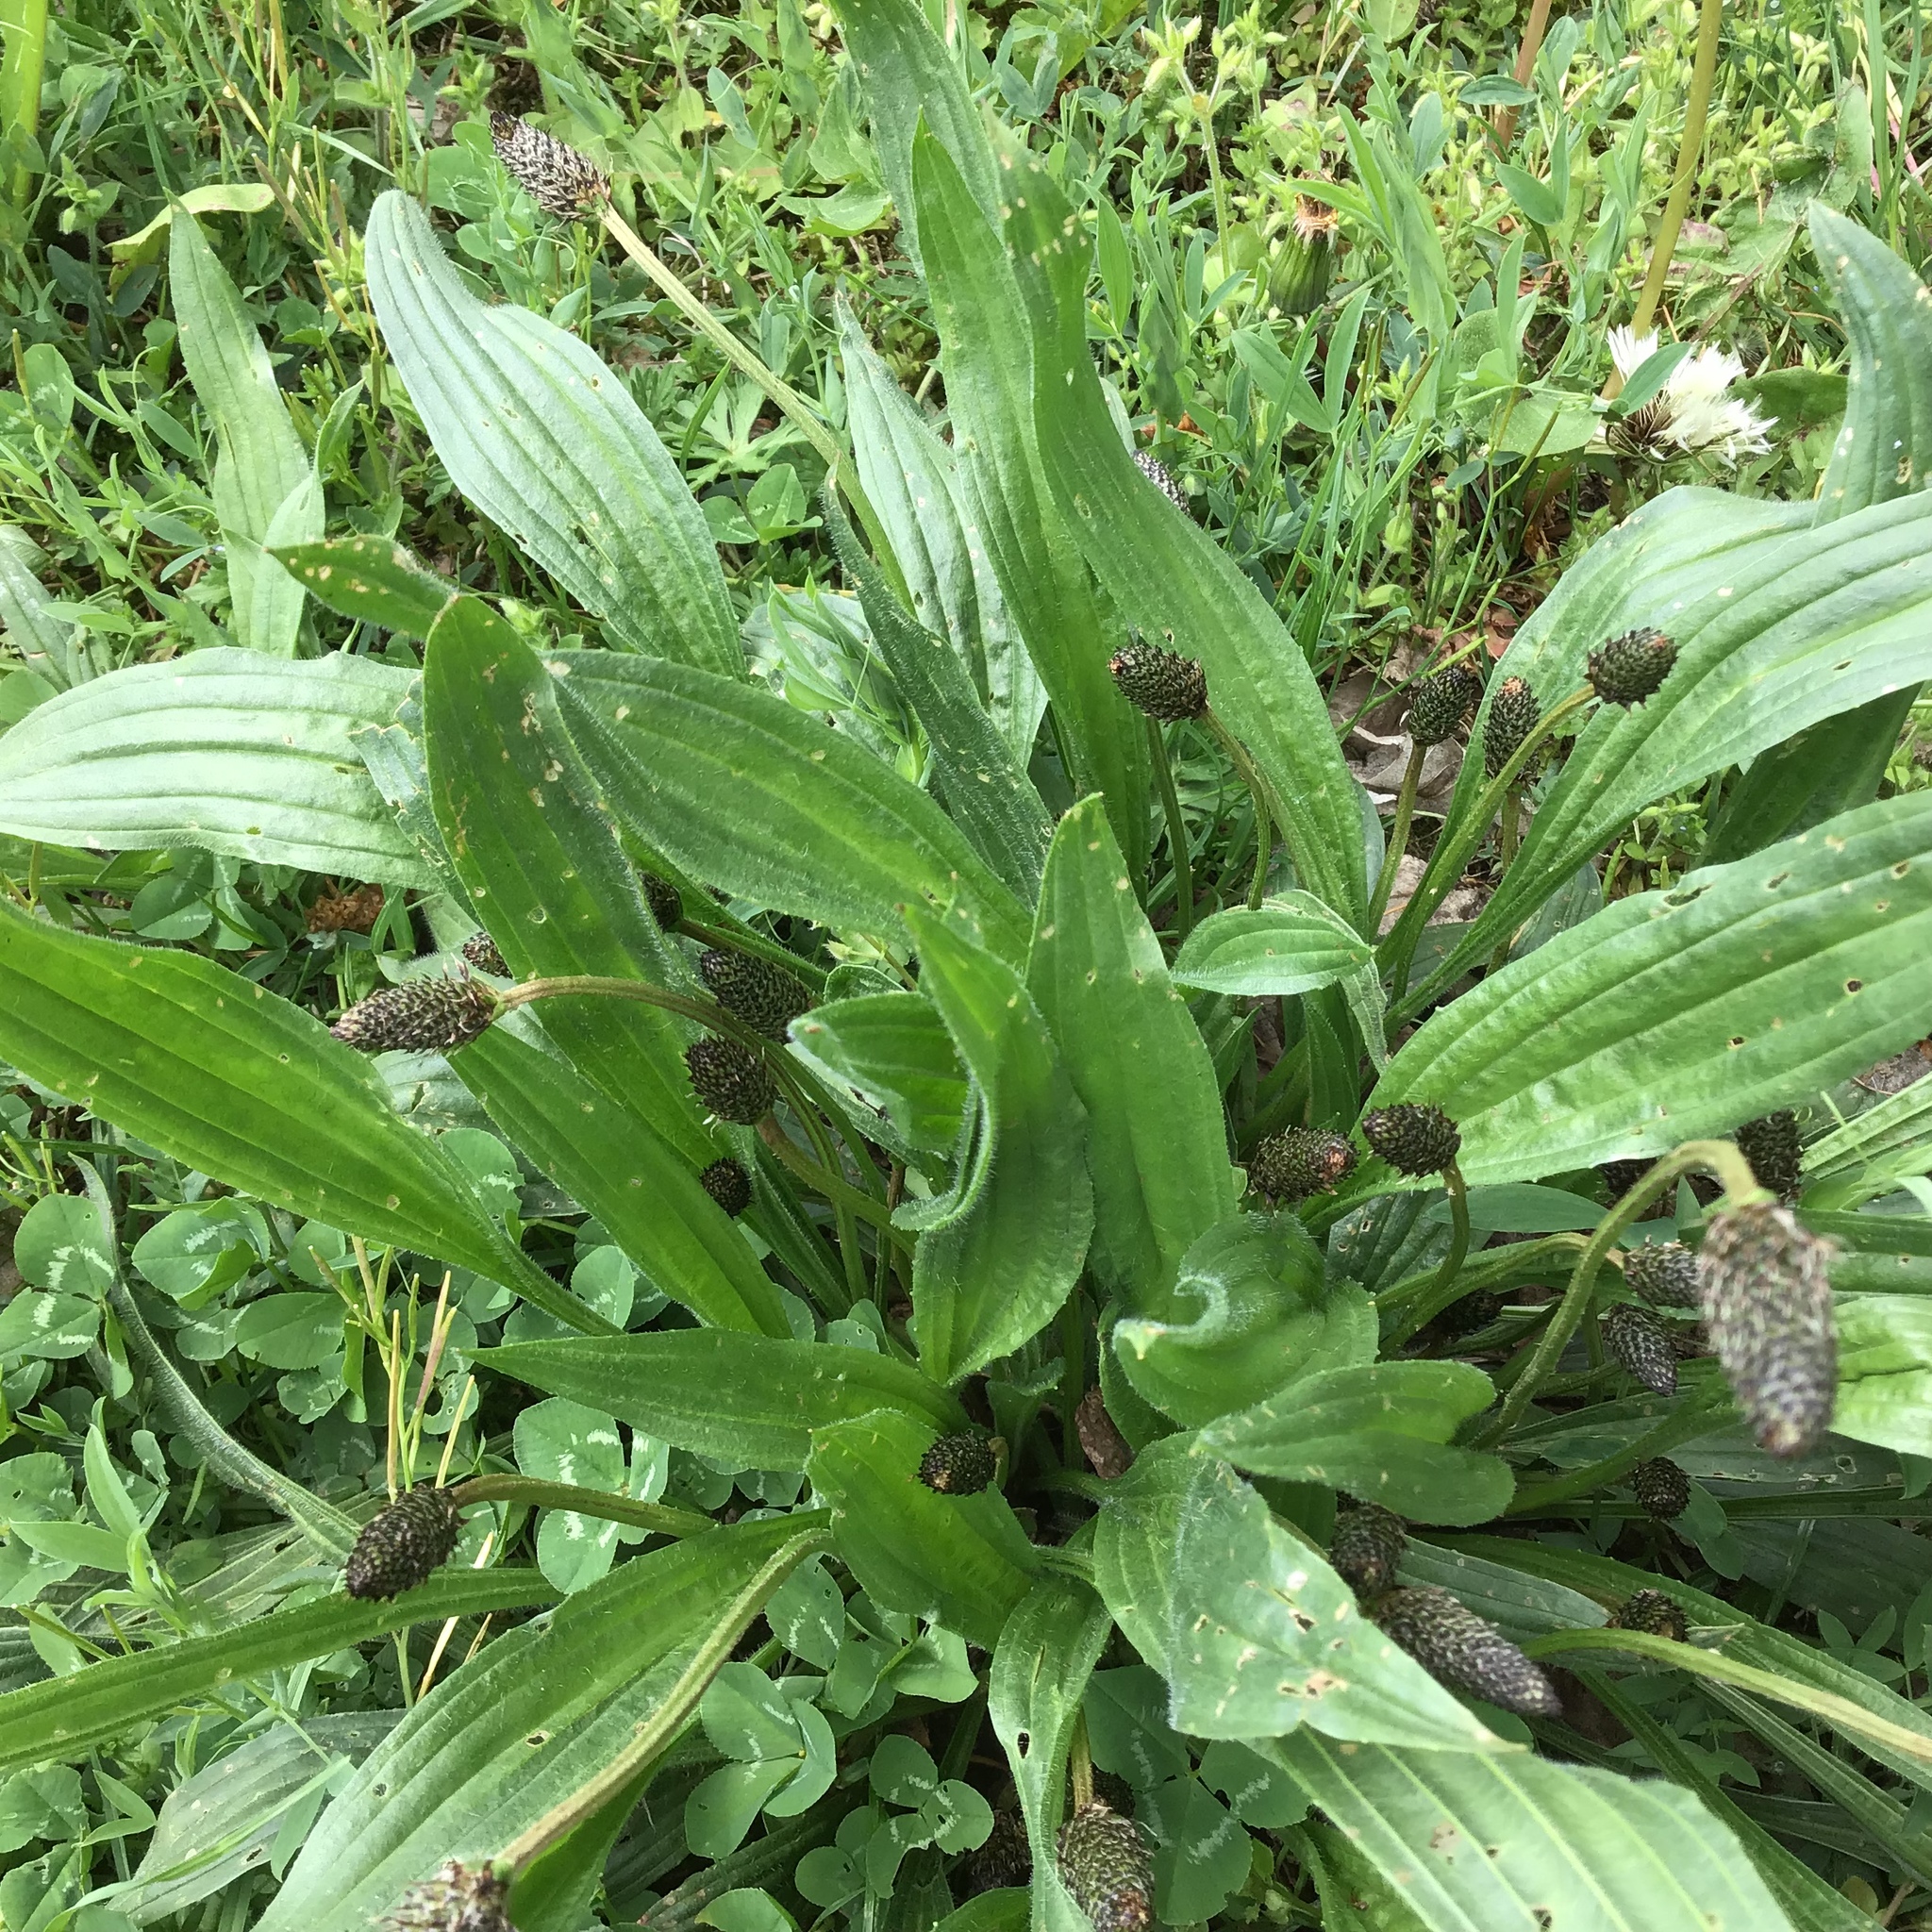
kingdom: Plantae
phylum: Tracheophyta
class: Magnoliopsida
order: Lamiales
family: Plantaginaceae
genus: Plantago
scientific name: Plantago lanceolata
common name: Ribwort plantain
